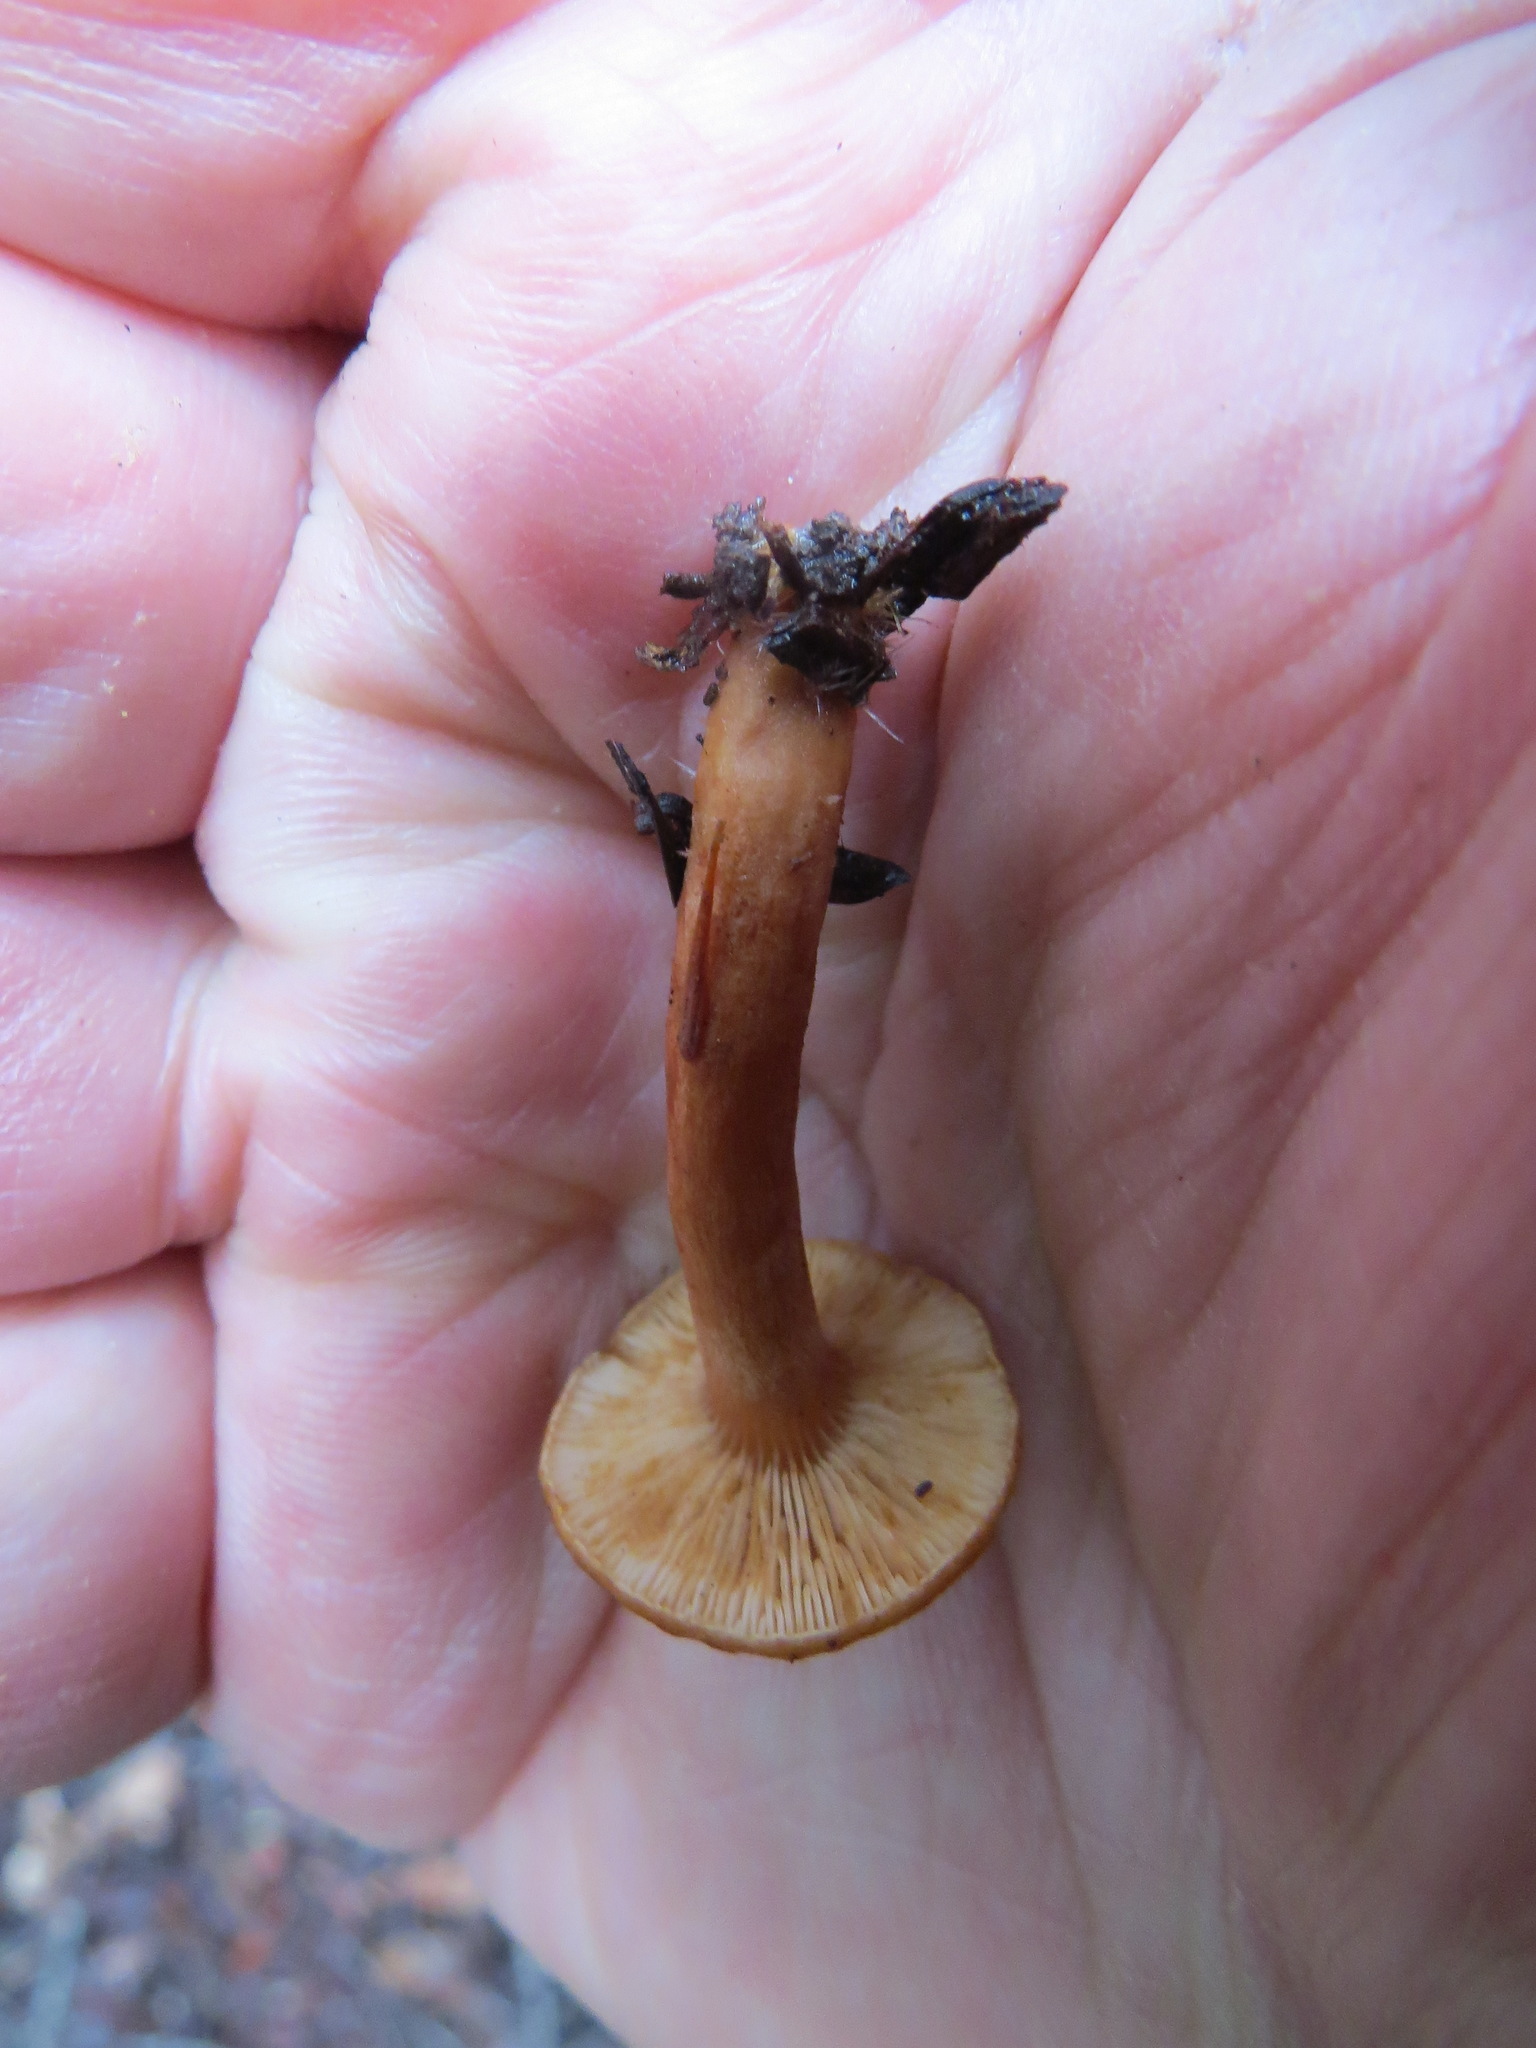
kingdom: Fungi
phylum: Basidiomycota
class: Agaricomycetes
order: Russulales
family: Russulaceae
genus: Lactarius
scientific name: Lactarius rubidus
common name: Candy cap
